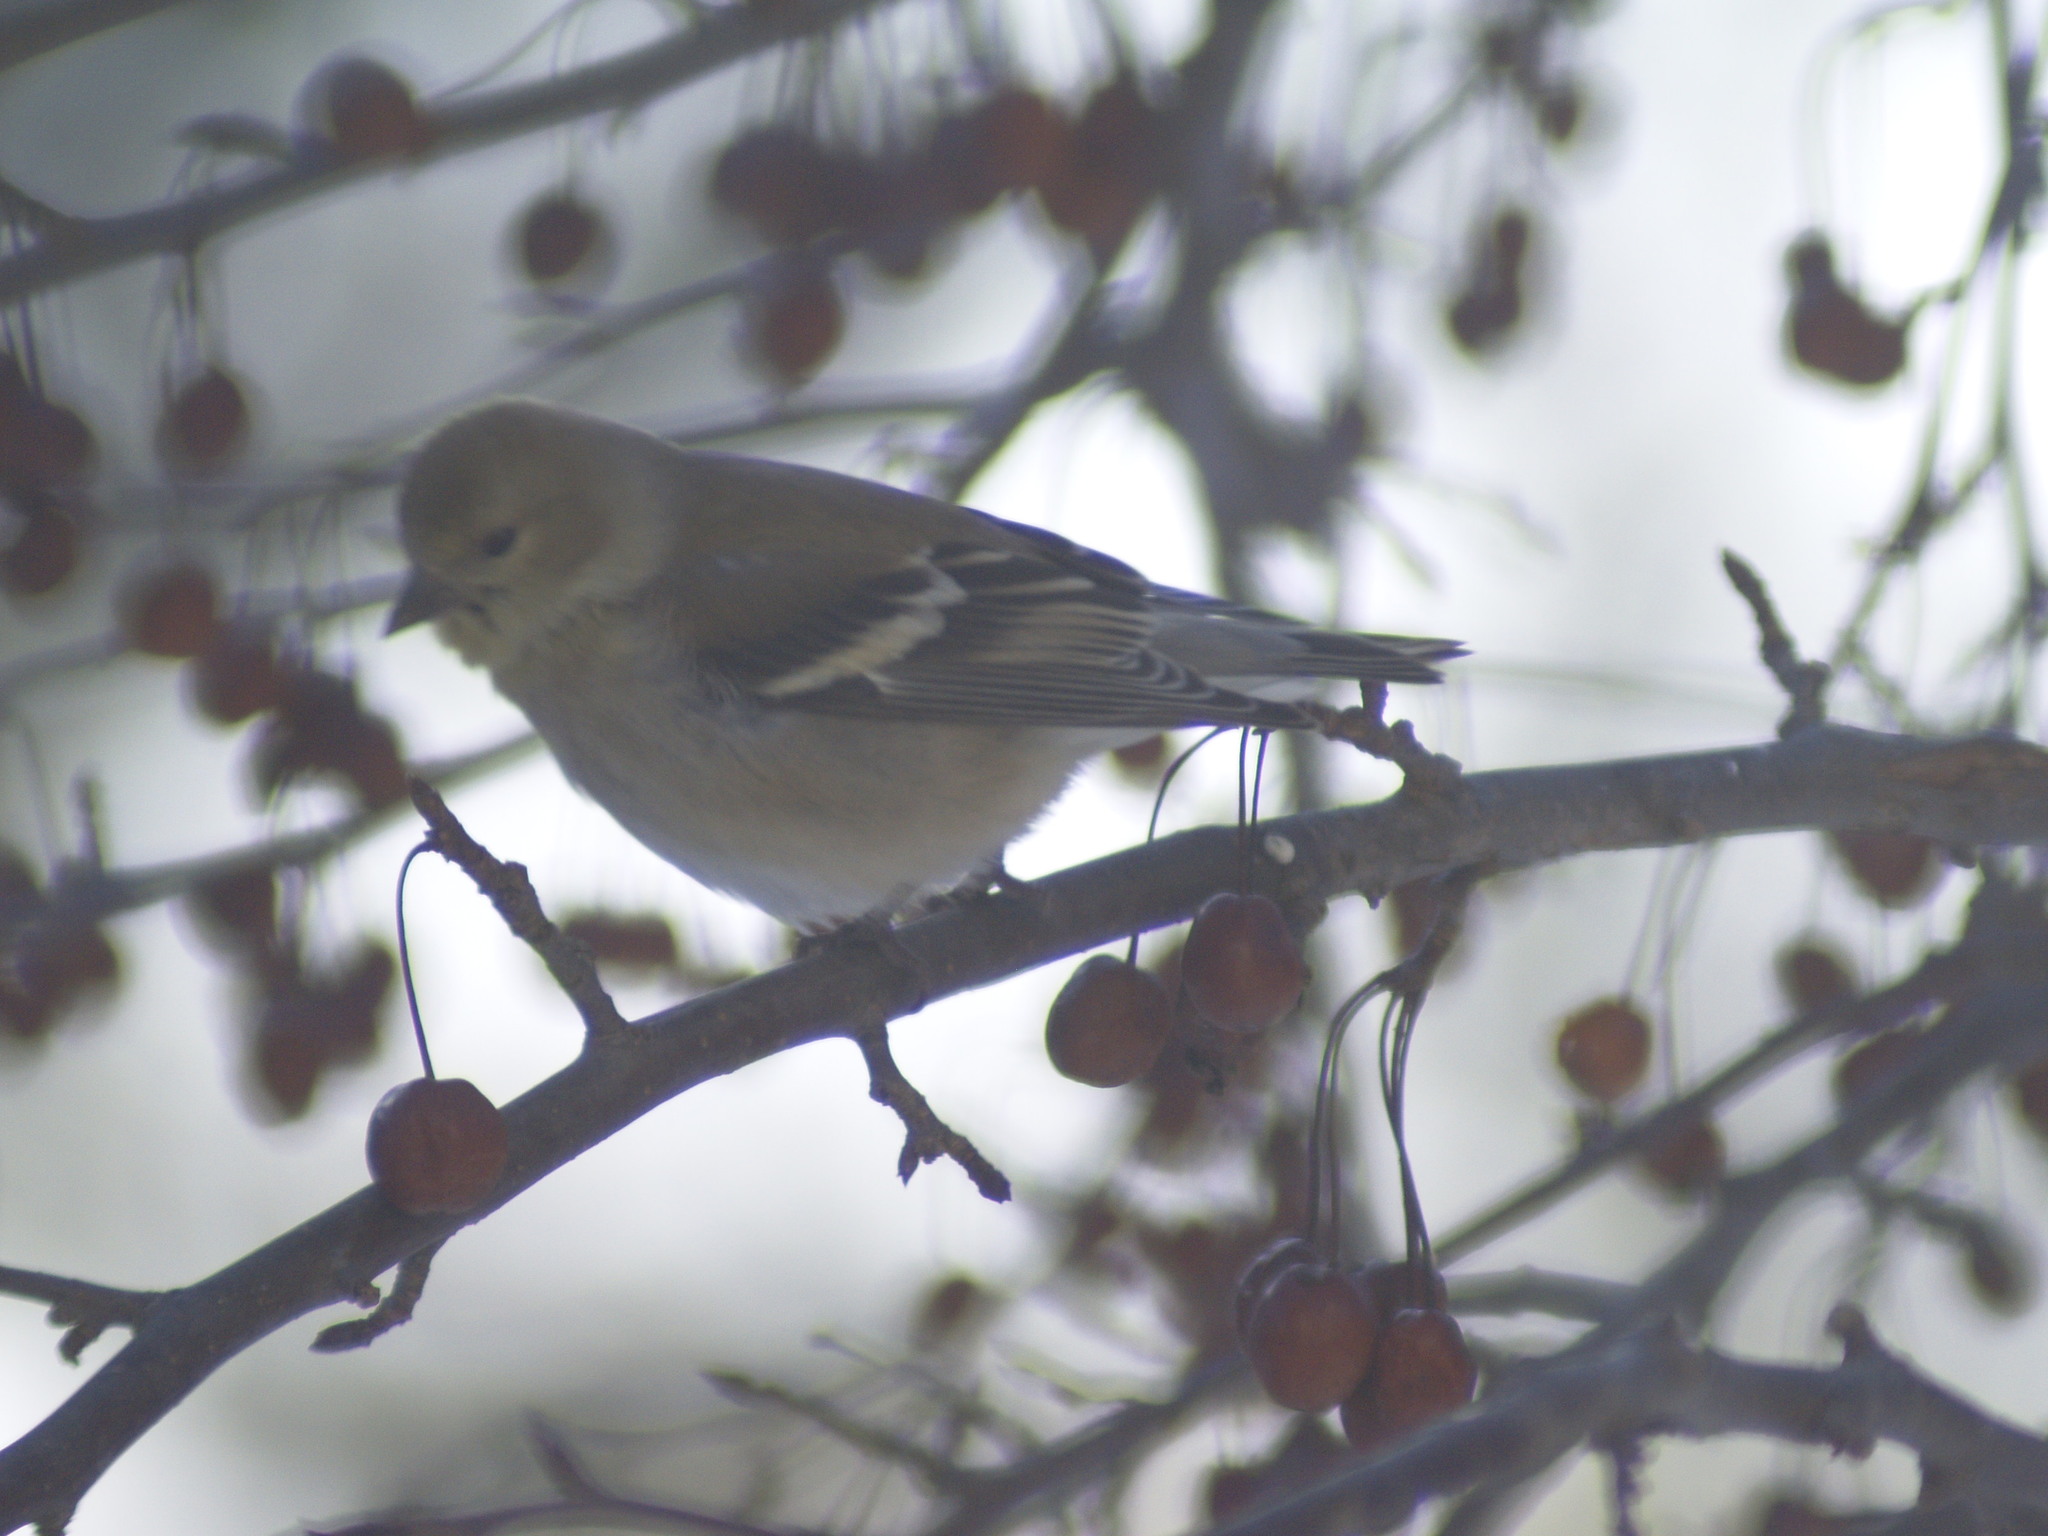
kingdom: Animalia
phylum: Chordata
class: Aves
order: Passeriformes
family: Fringillidae
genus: Spinus
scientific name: Spinus tristis
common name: American goldfinch
